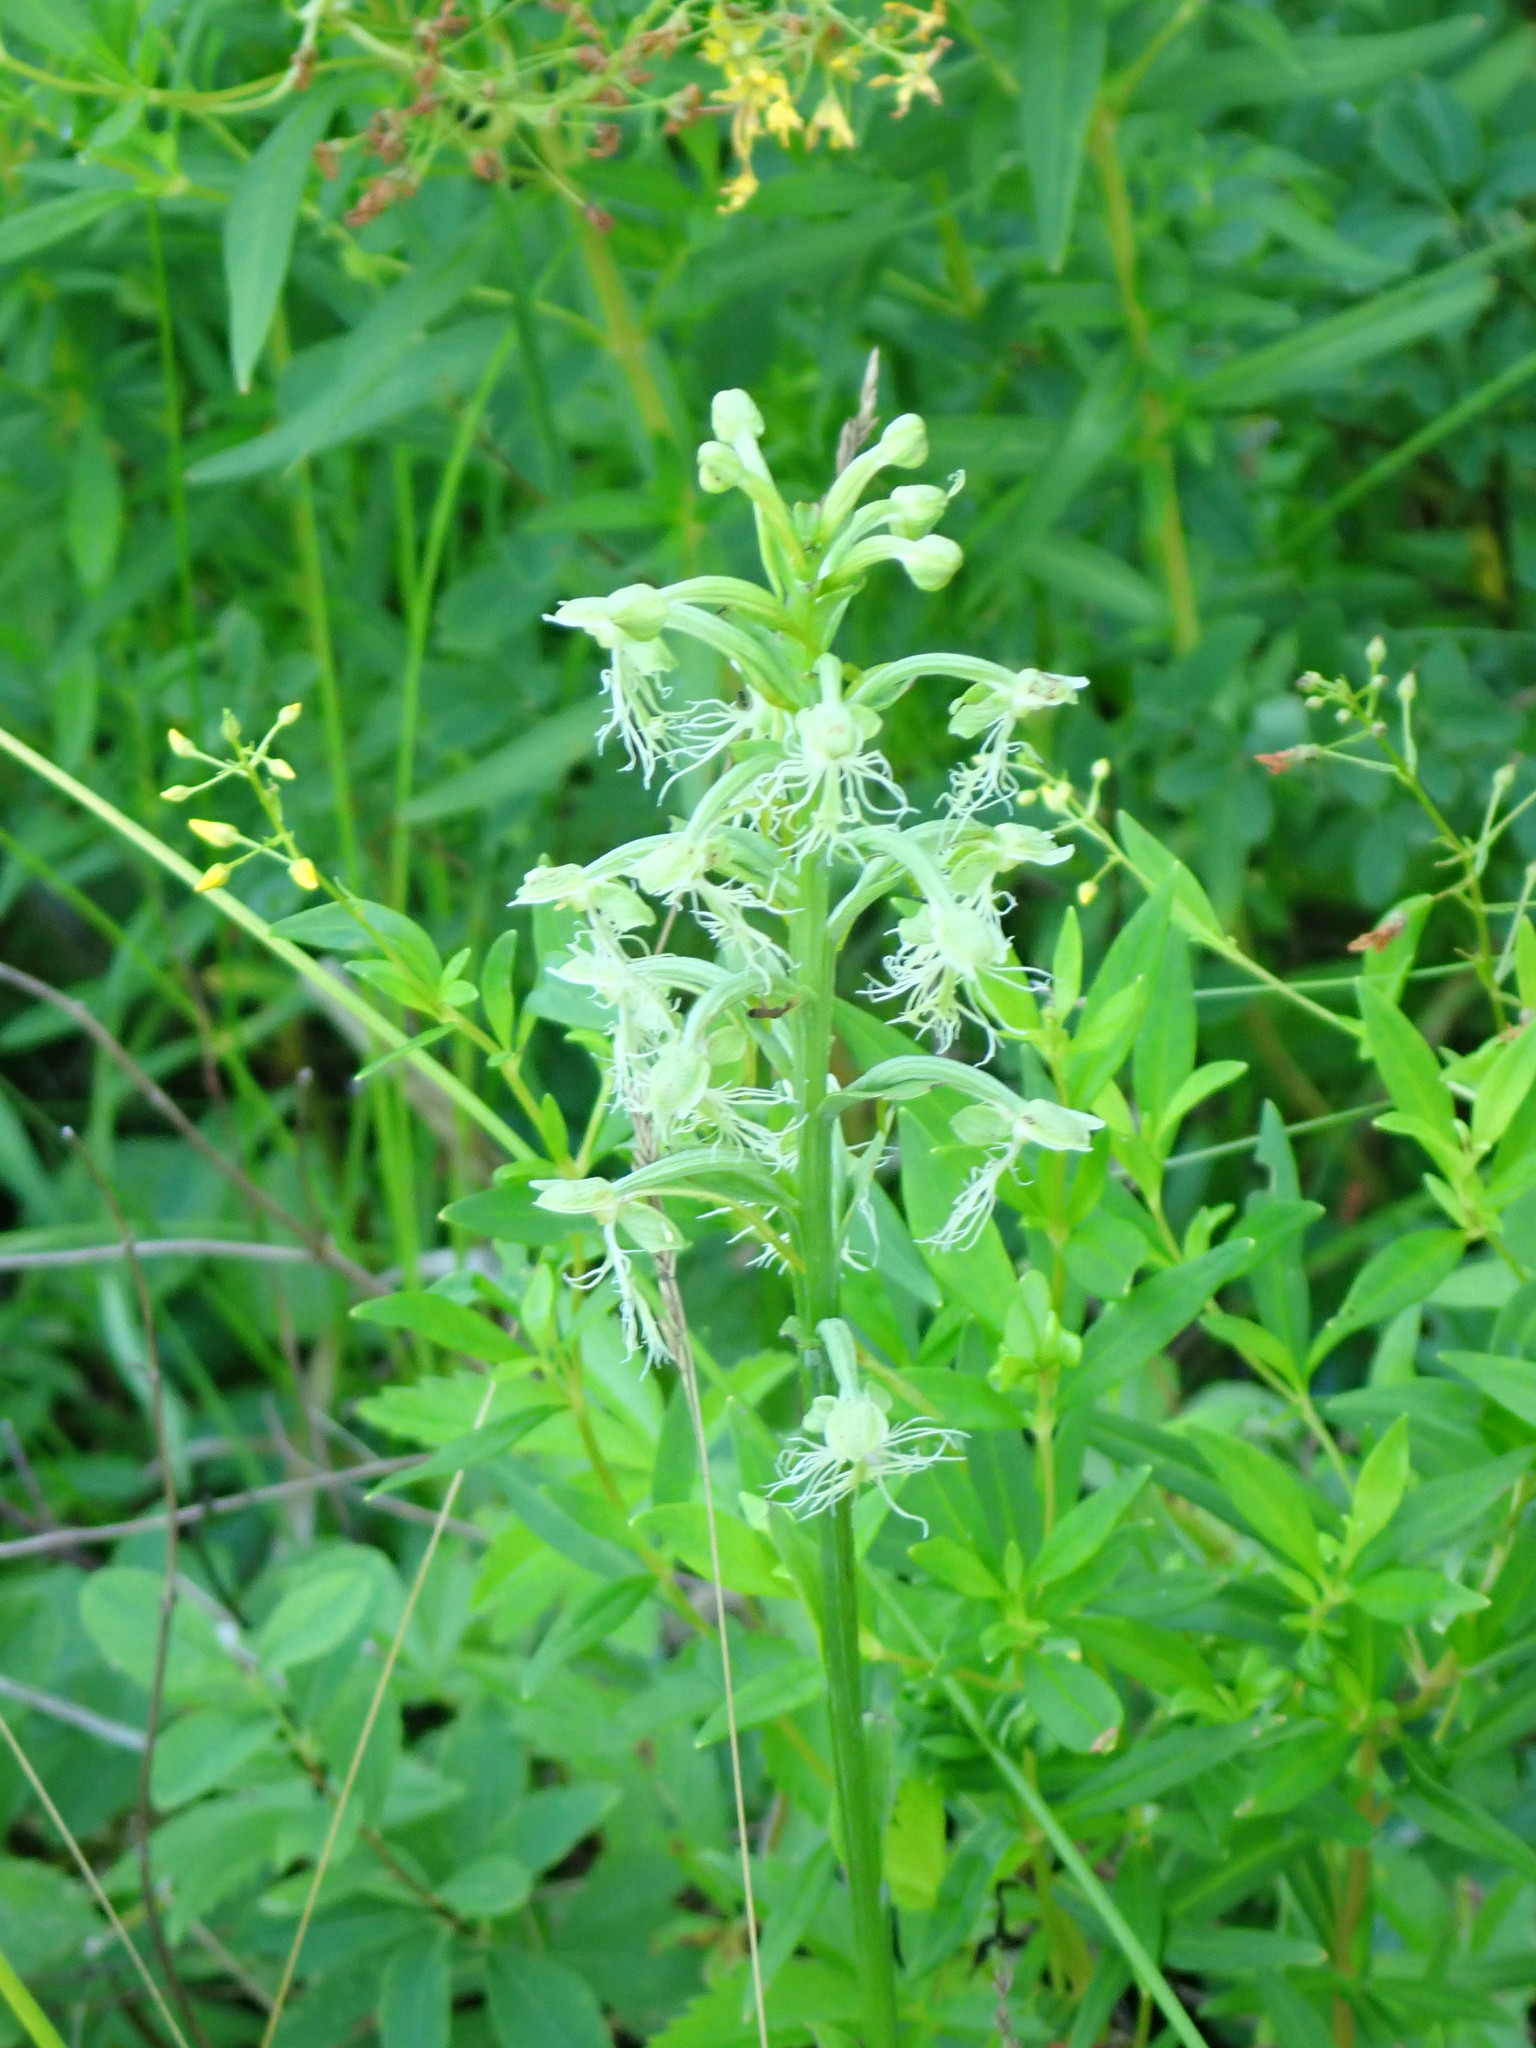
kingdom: Plantae
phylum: Tracheophyta
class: Liliopsida
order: Asparagales
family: Orchidaceae
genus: Platanthera
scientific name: Platanthera lacera
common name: Green fringed orchid
